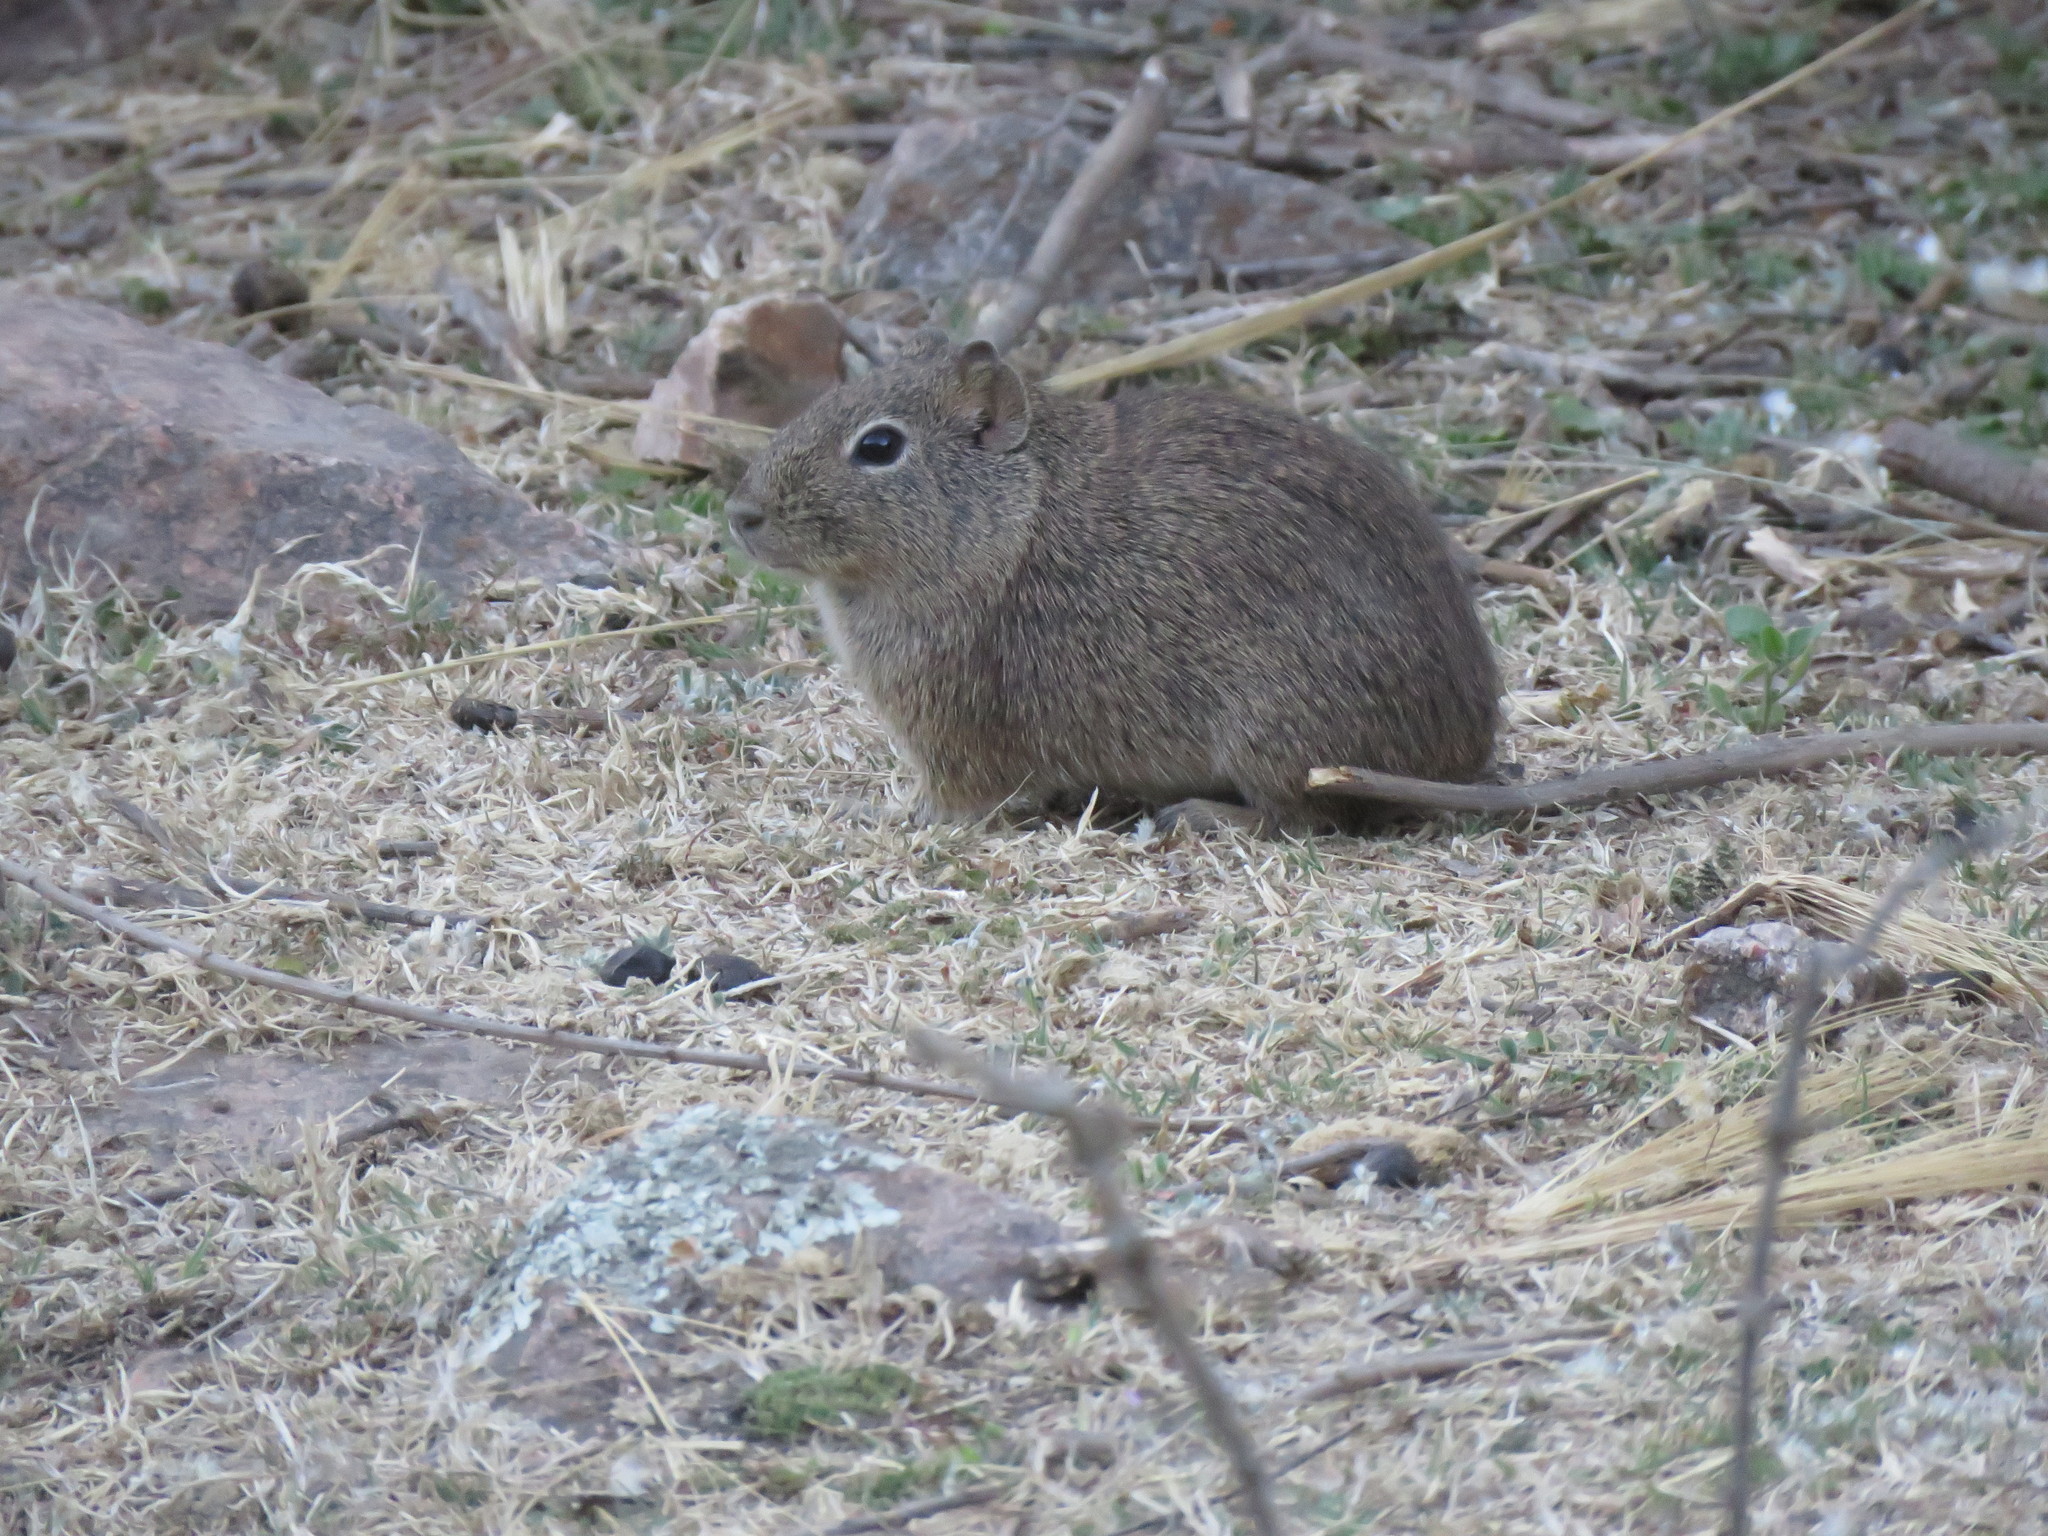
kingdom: Animalia
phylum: Chordata
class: Mammalia
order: Rodentia
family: Caviidae
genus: Microcavia
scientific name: Microcavia
